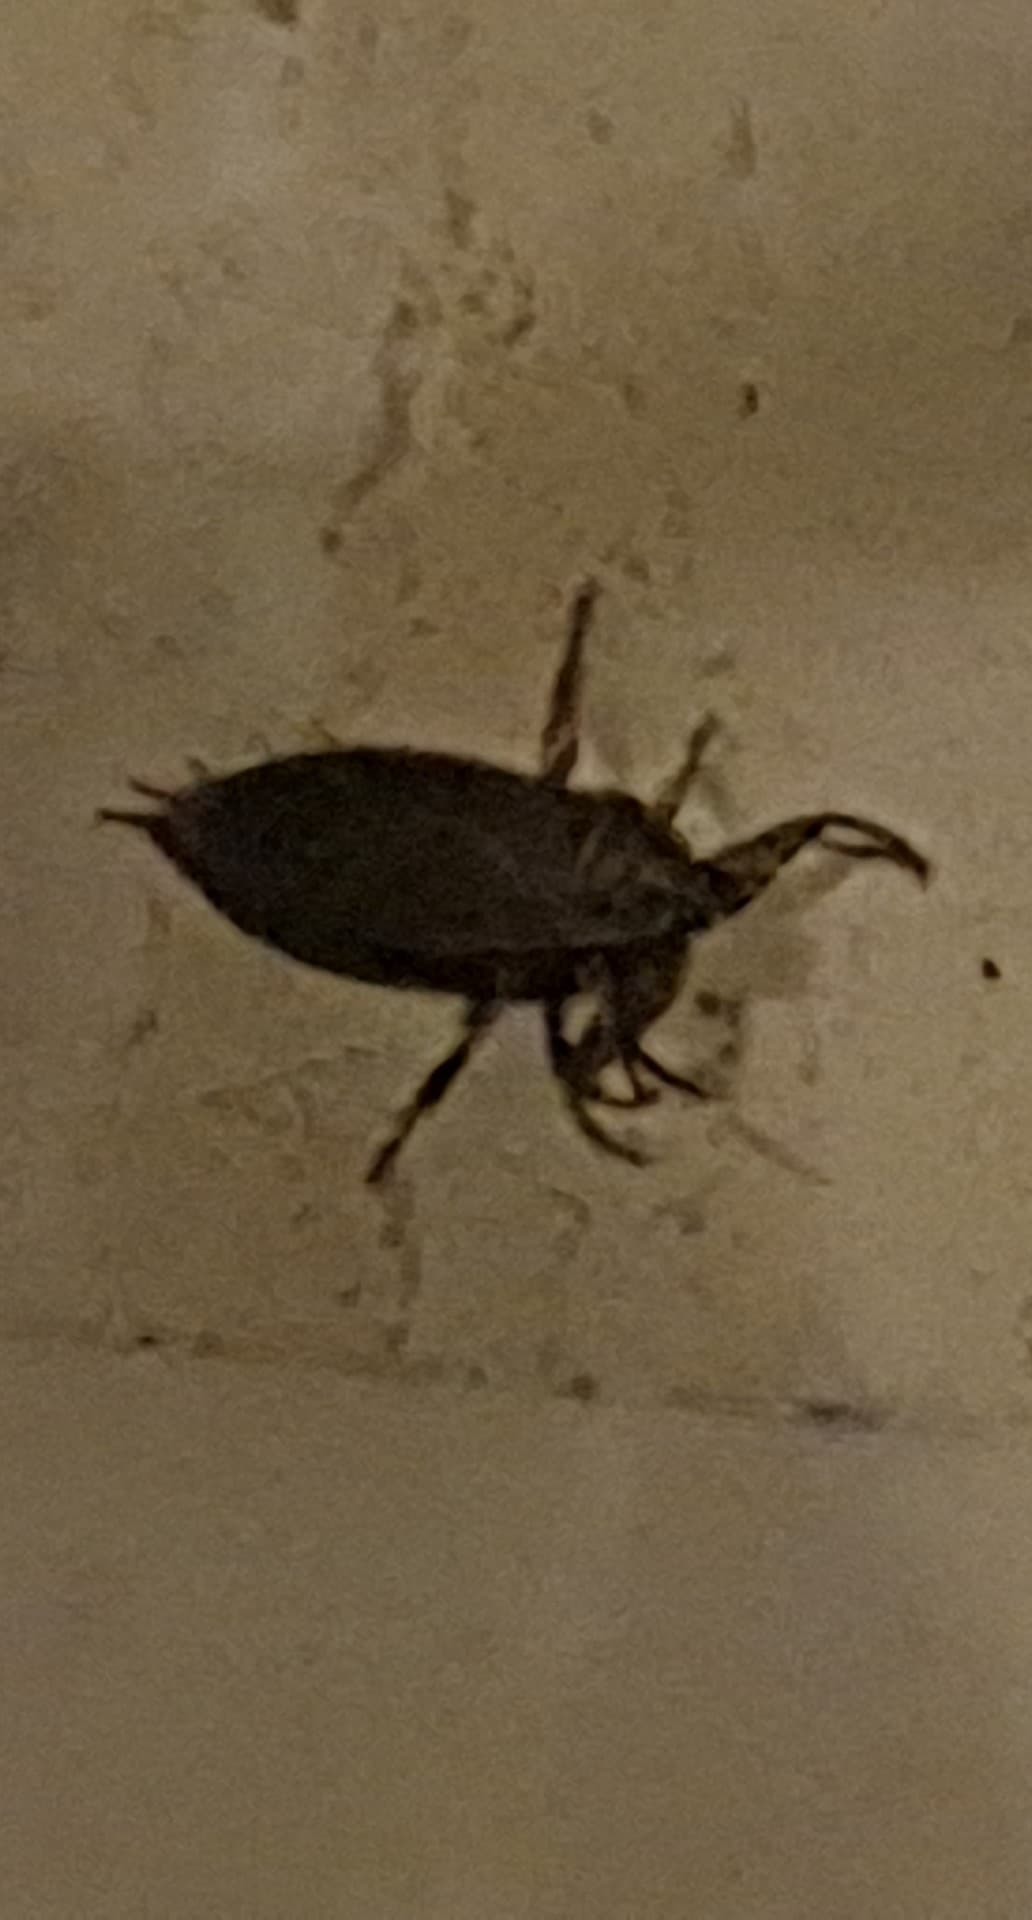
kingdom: Animalia
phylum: Arthropoda
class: Insecta
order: Hemiptera
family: Belostomatidae
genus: Lethocerus
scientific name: Lethocerus
